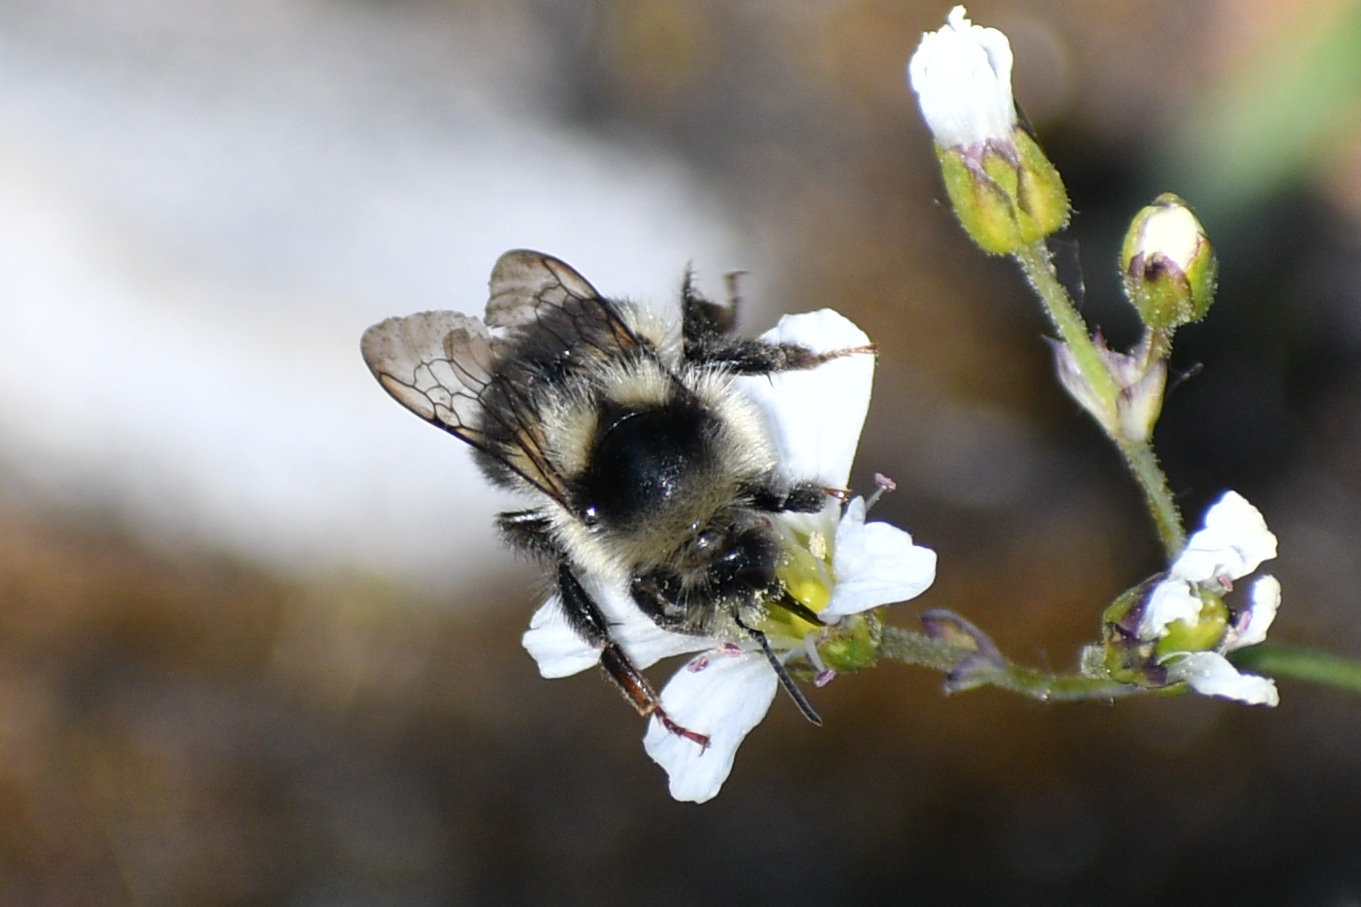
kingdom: Animalia
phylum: Arthropoda
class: Insecta
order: Hymenoptera
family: Apidae
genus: Bombus
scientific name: Bombus vancouverensis
